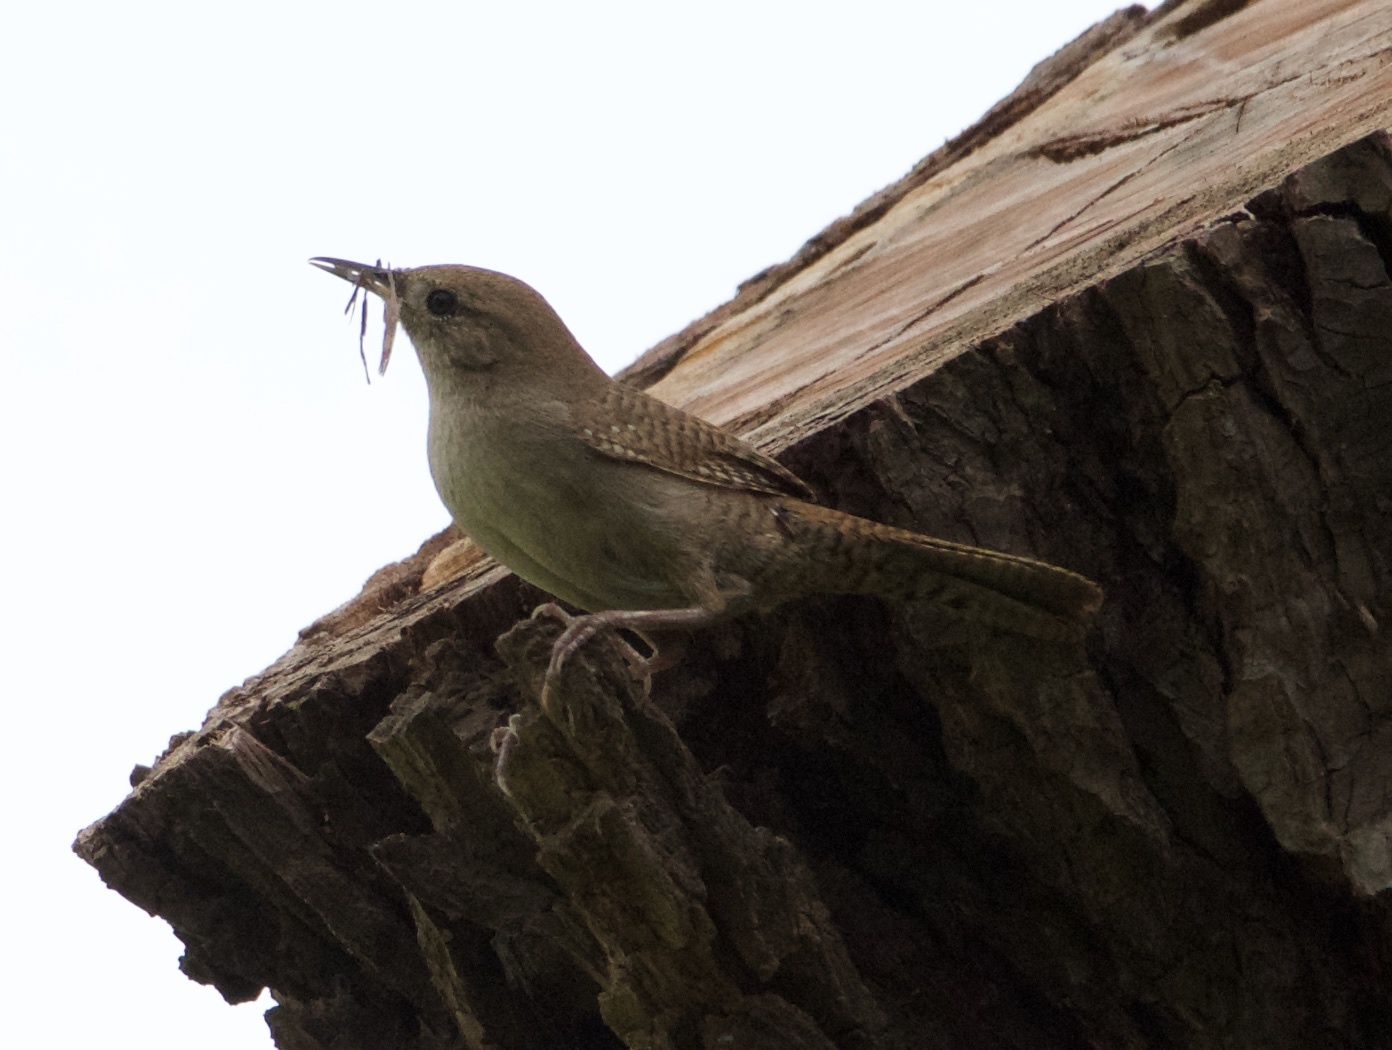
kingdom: Animalia
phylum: Chordata
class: Aves
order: Passeriformes
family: Troglodytidae
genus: Troglodytes
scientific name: Troglodytes aedon
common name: House wren
